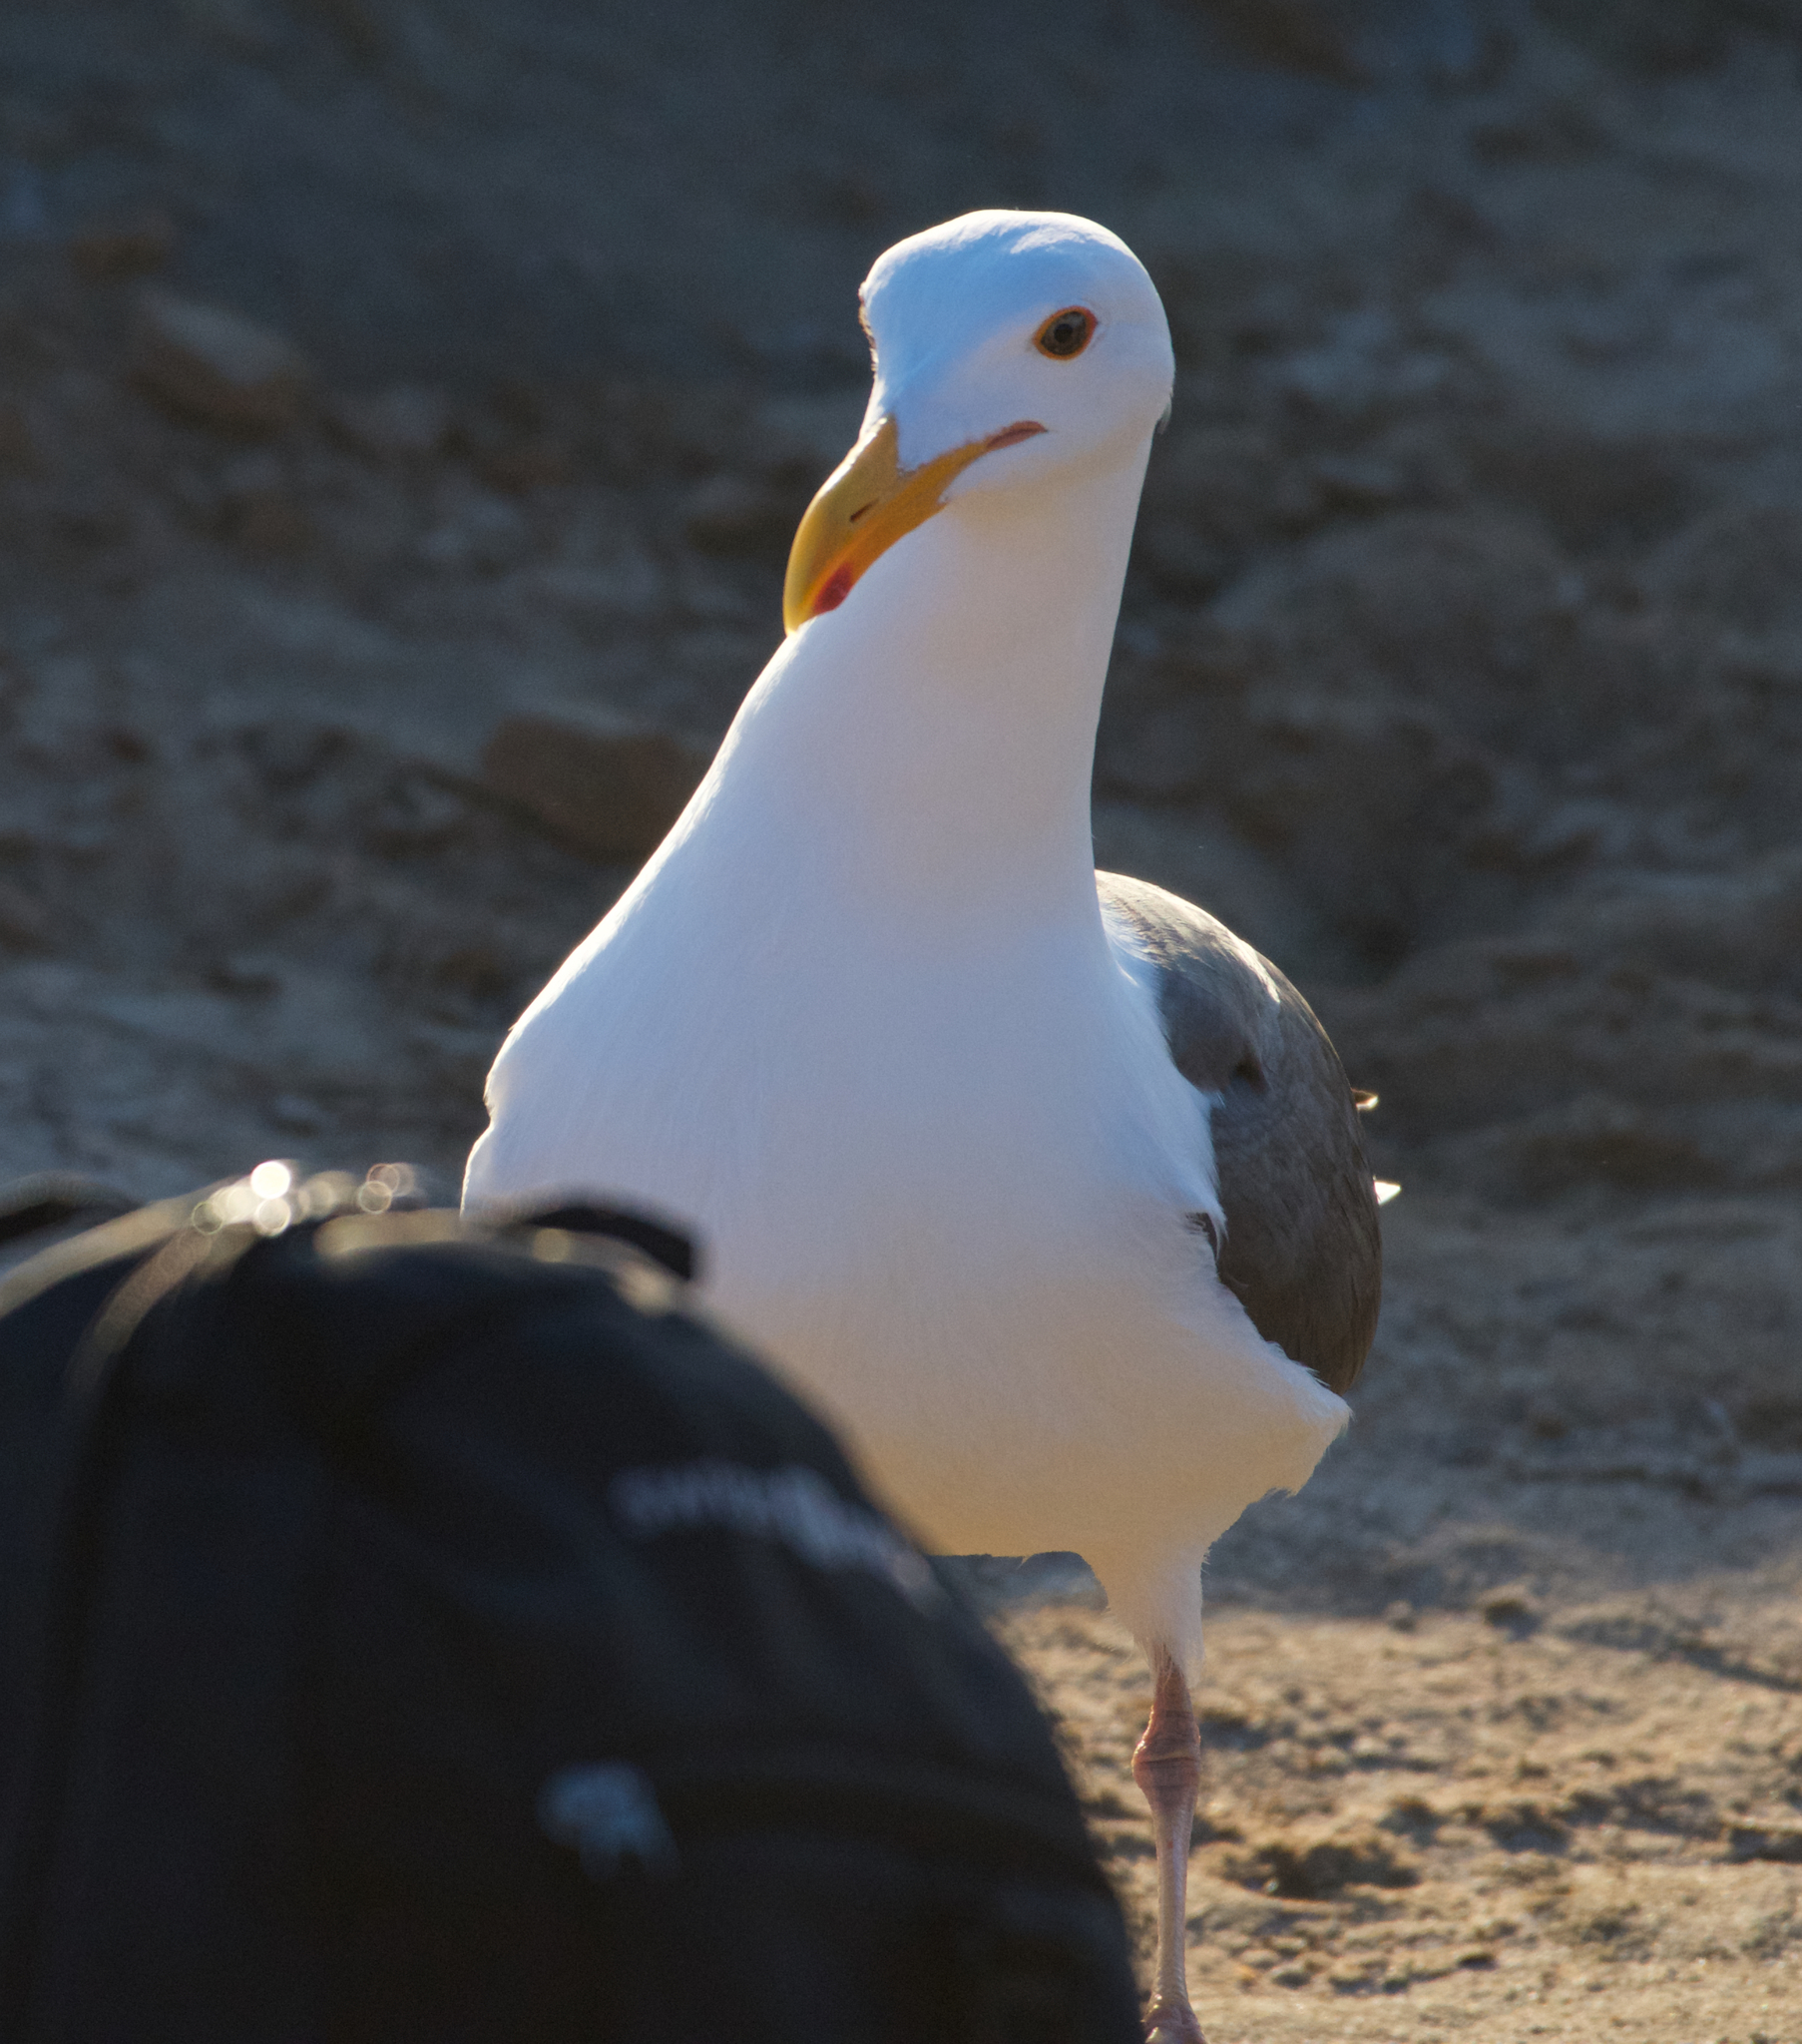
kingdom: Animalia
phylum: Chordata
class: Aves
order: Charadriiformes
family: Laridae
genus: Larus
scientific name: Larus occidentalis
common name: Western gull
